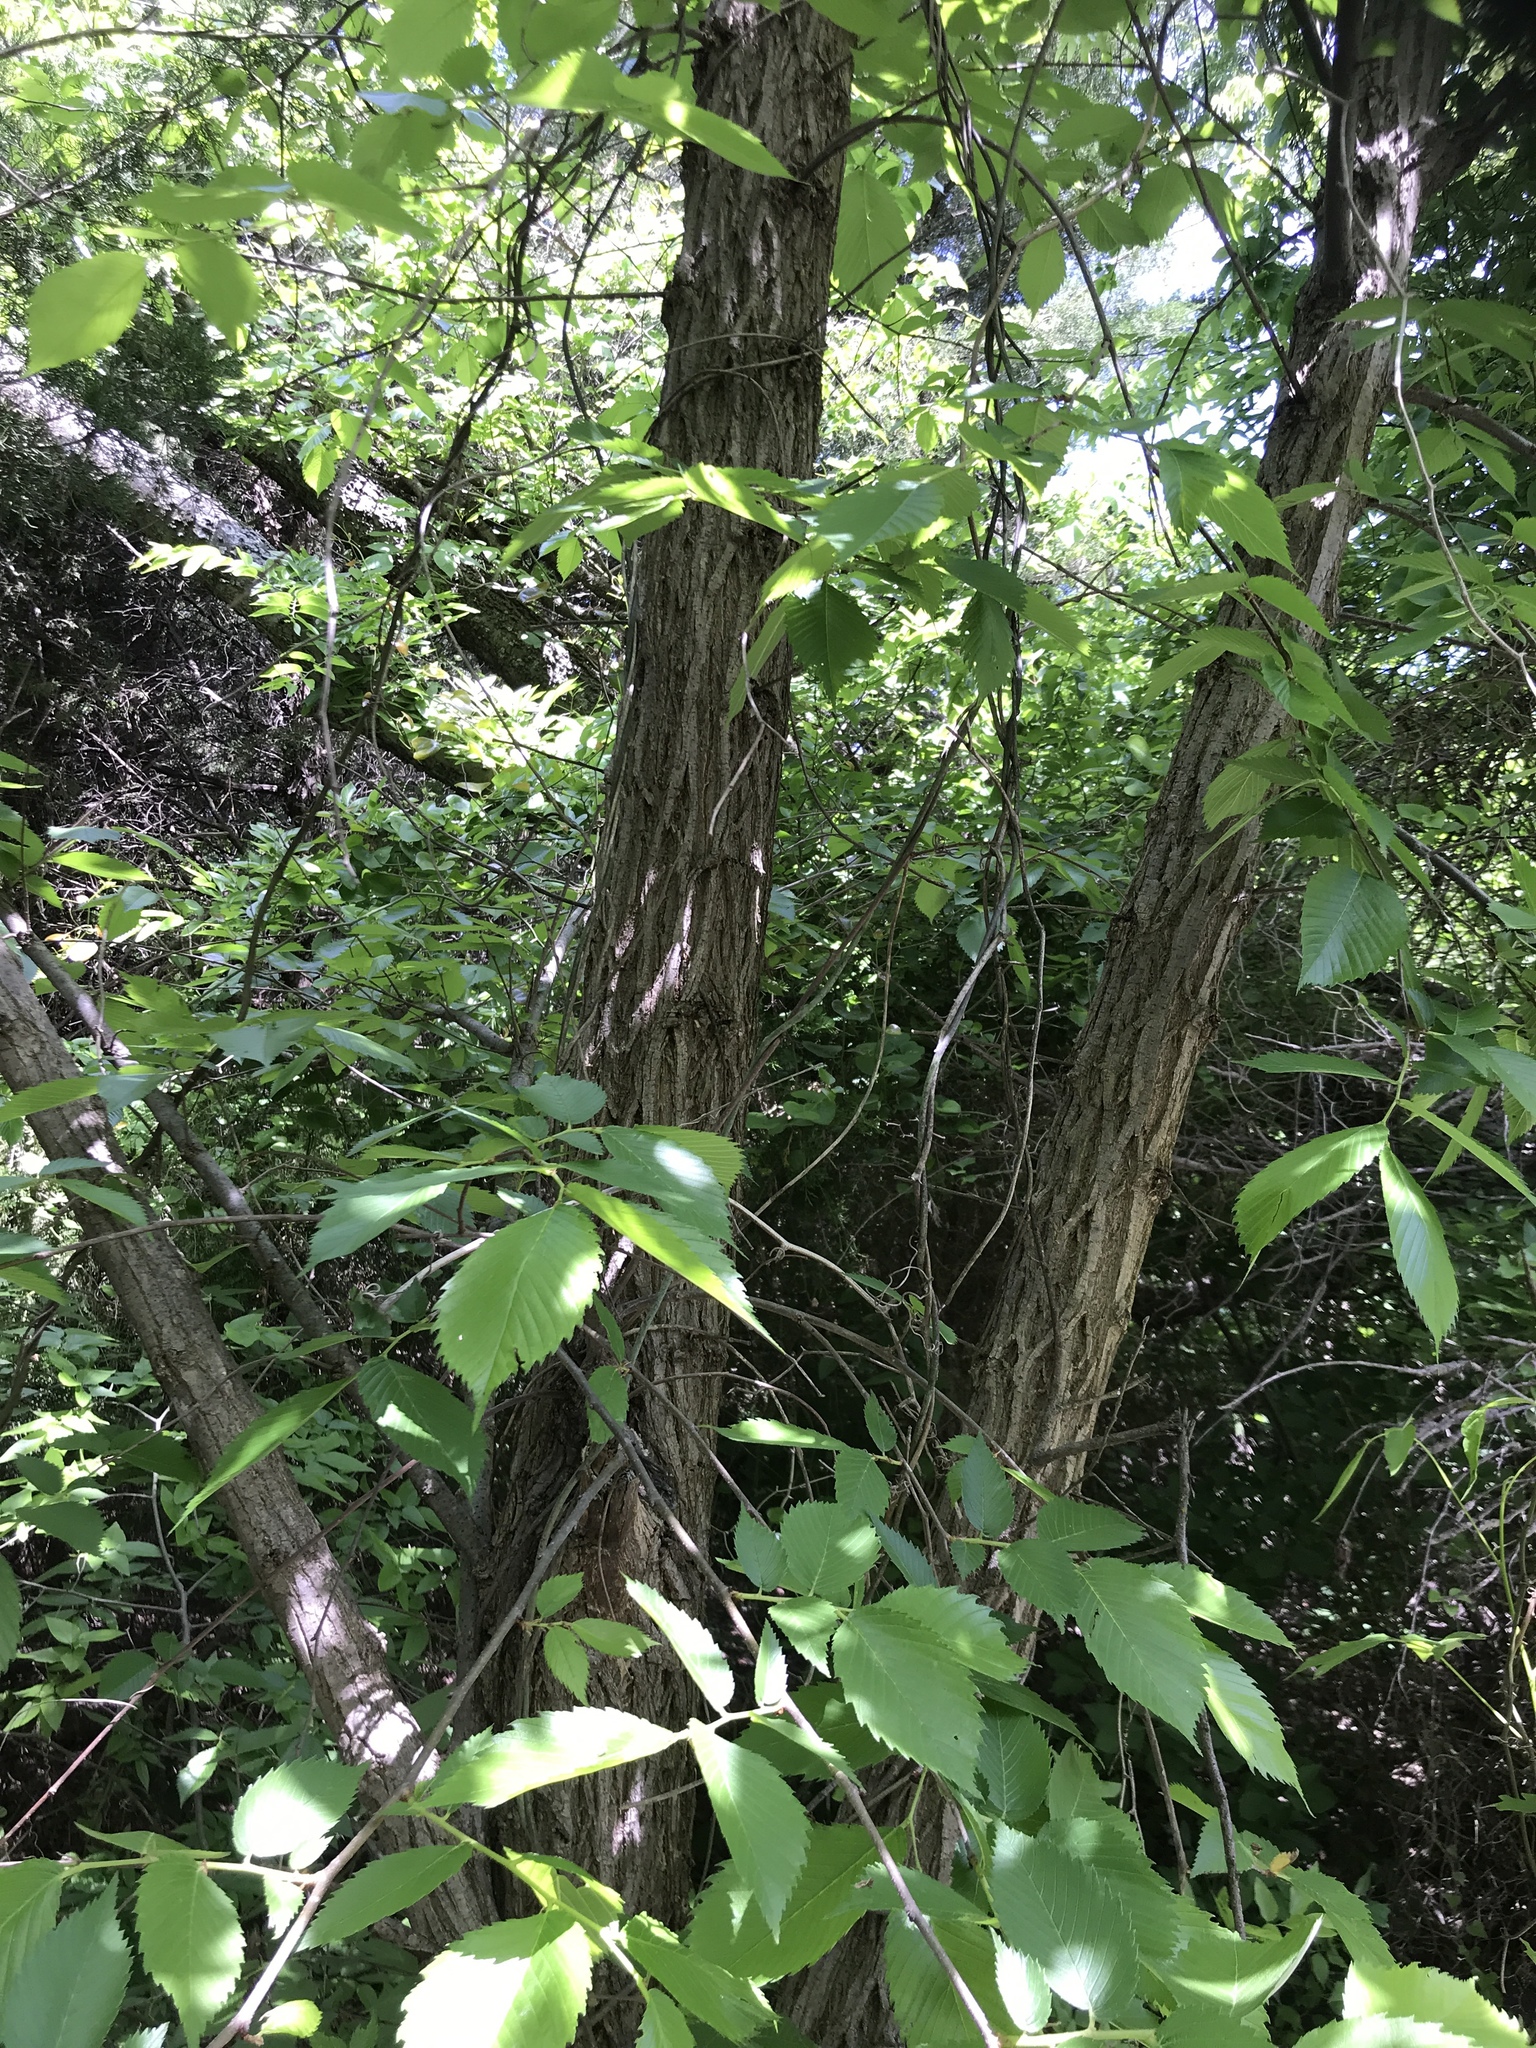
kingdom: Plantae
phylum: Tracheophyta
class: Magnoliopsida
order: Rosales
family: Ulmaceae
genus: Ulmus
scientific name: Ulmus americana
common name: American elm
